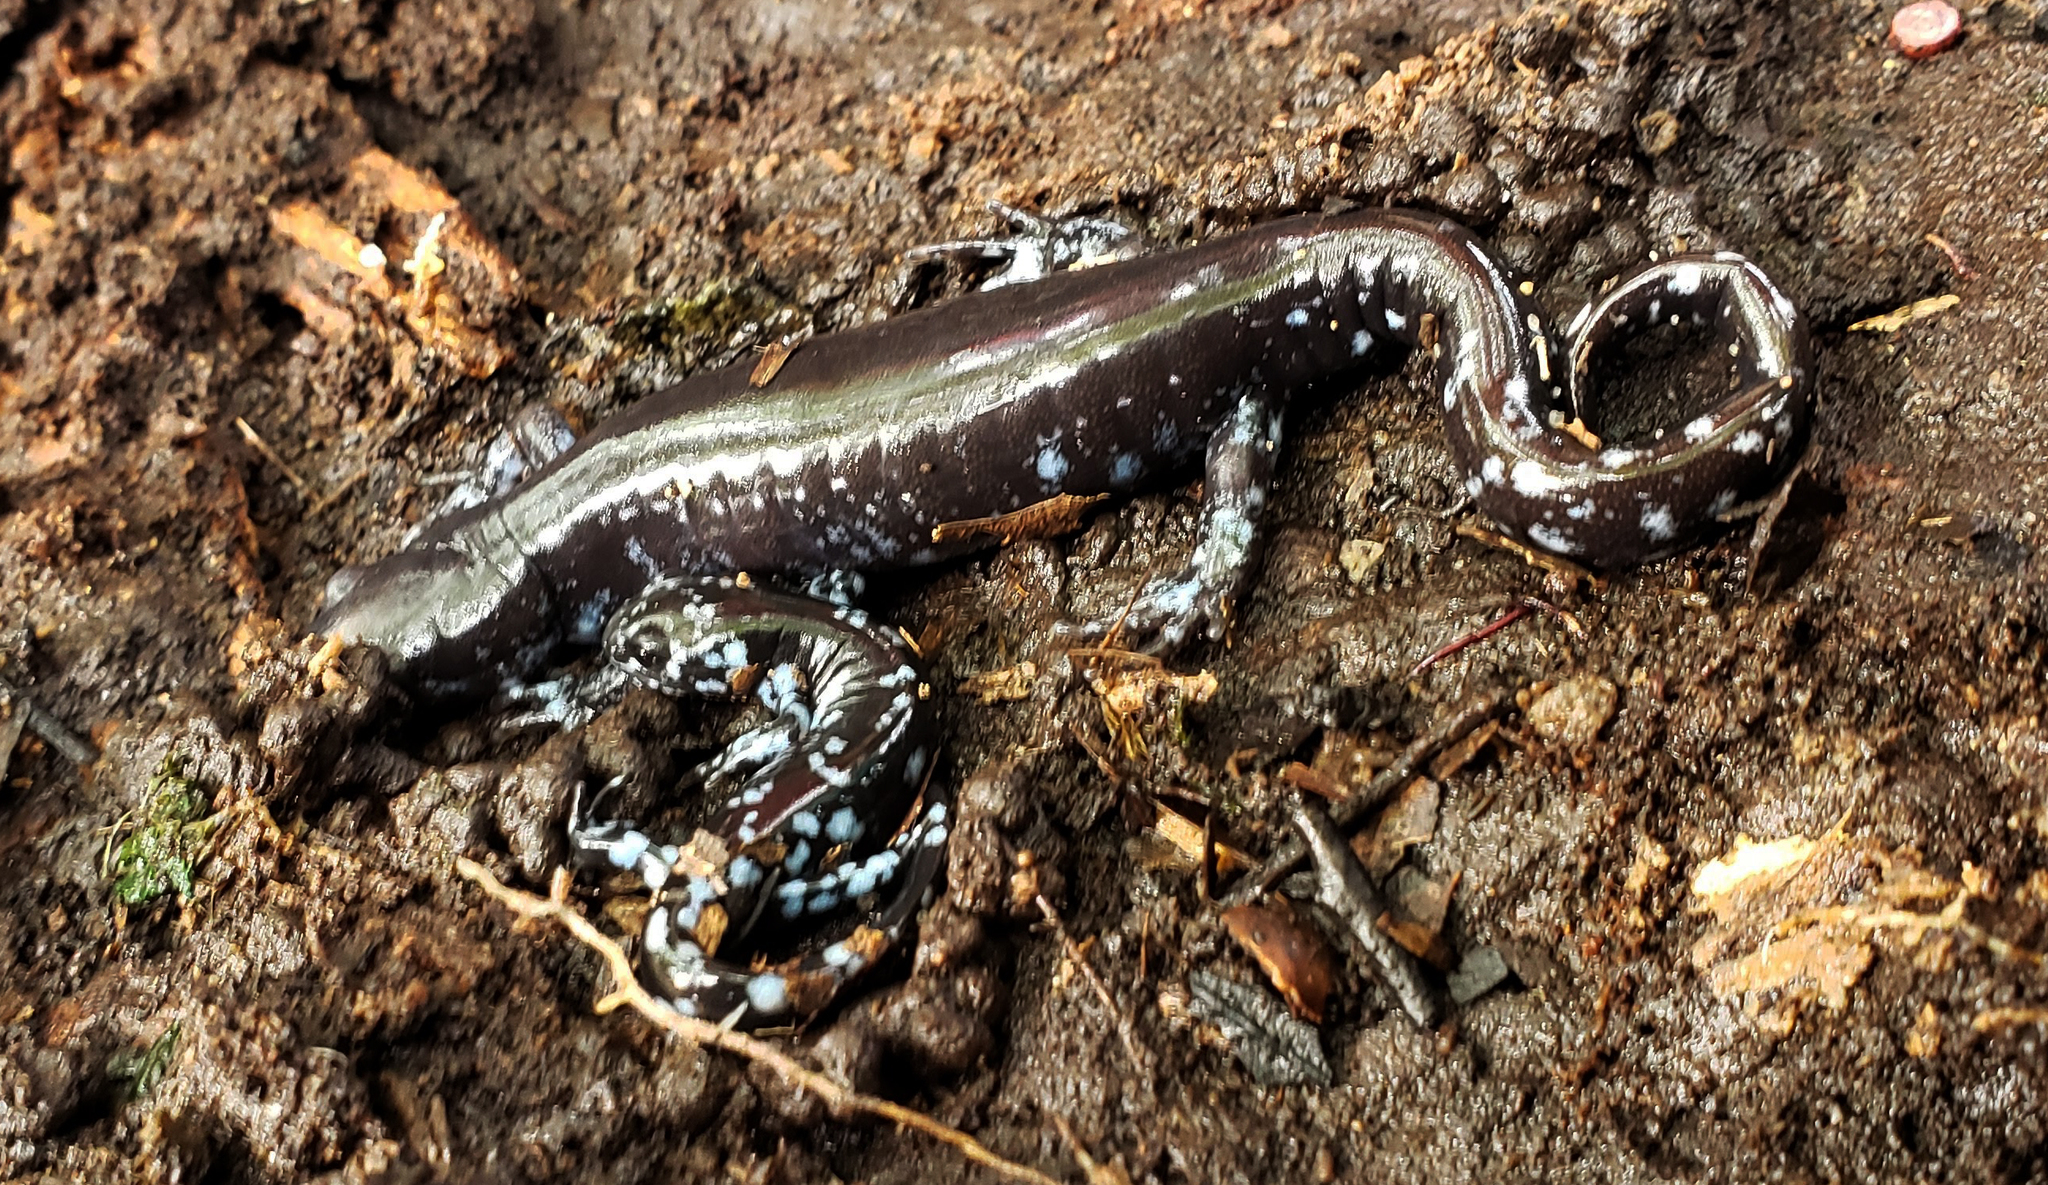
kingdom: Animalia
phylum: Chordata
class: Amphibia
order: Caudata
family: Ambystomatidae
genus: Ambystoma
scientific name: Ambystoma laterale
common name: Blue-spotted salamander
